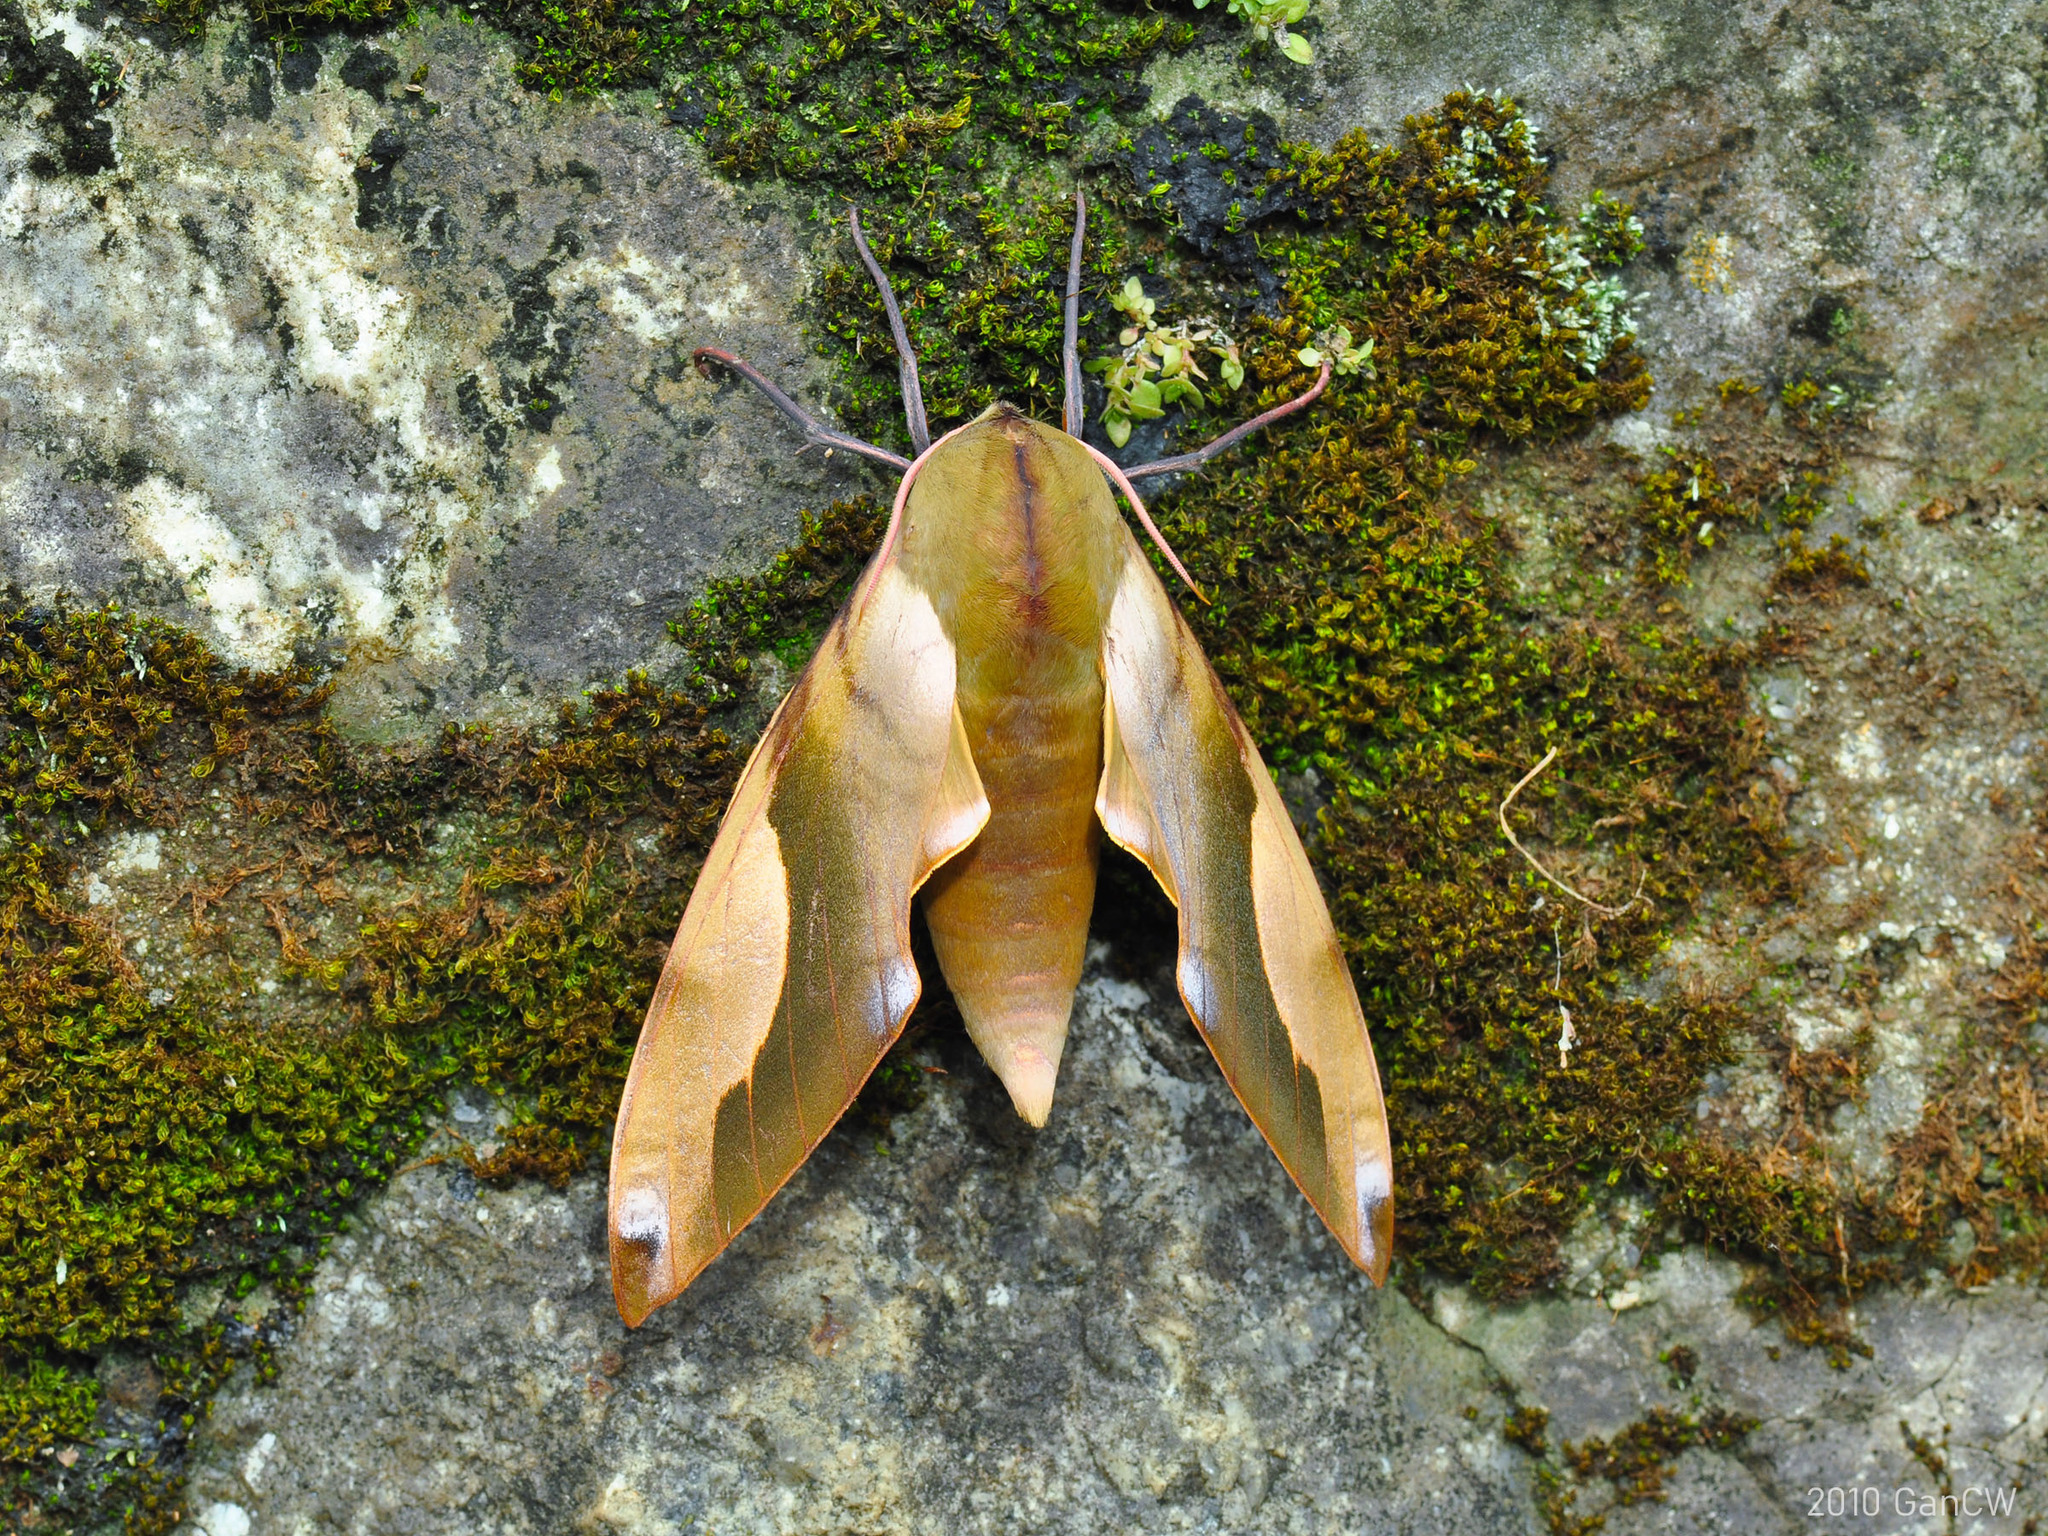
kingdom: Animalia
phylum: Arthropoda
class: Insecta
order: Lepidoptera
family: Sphingidae
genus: Clanis
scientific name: Clanis orhanti
